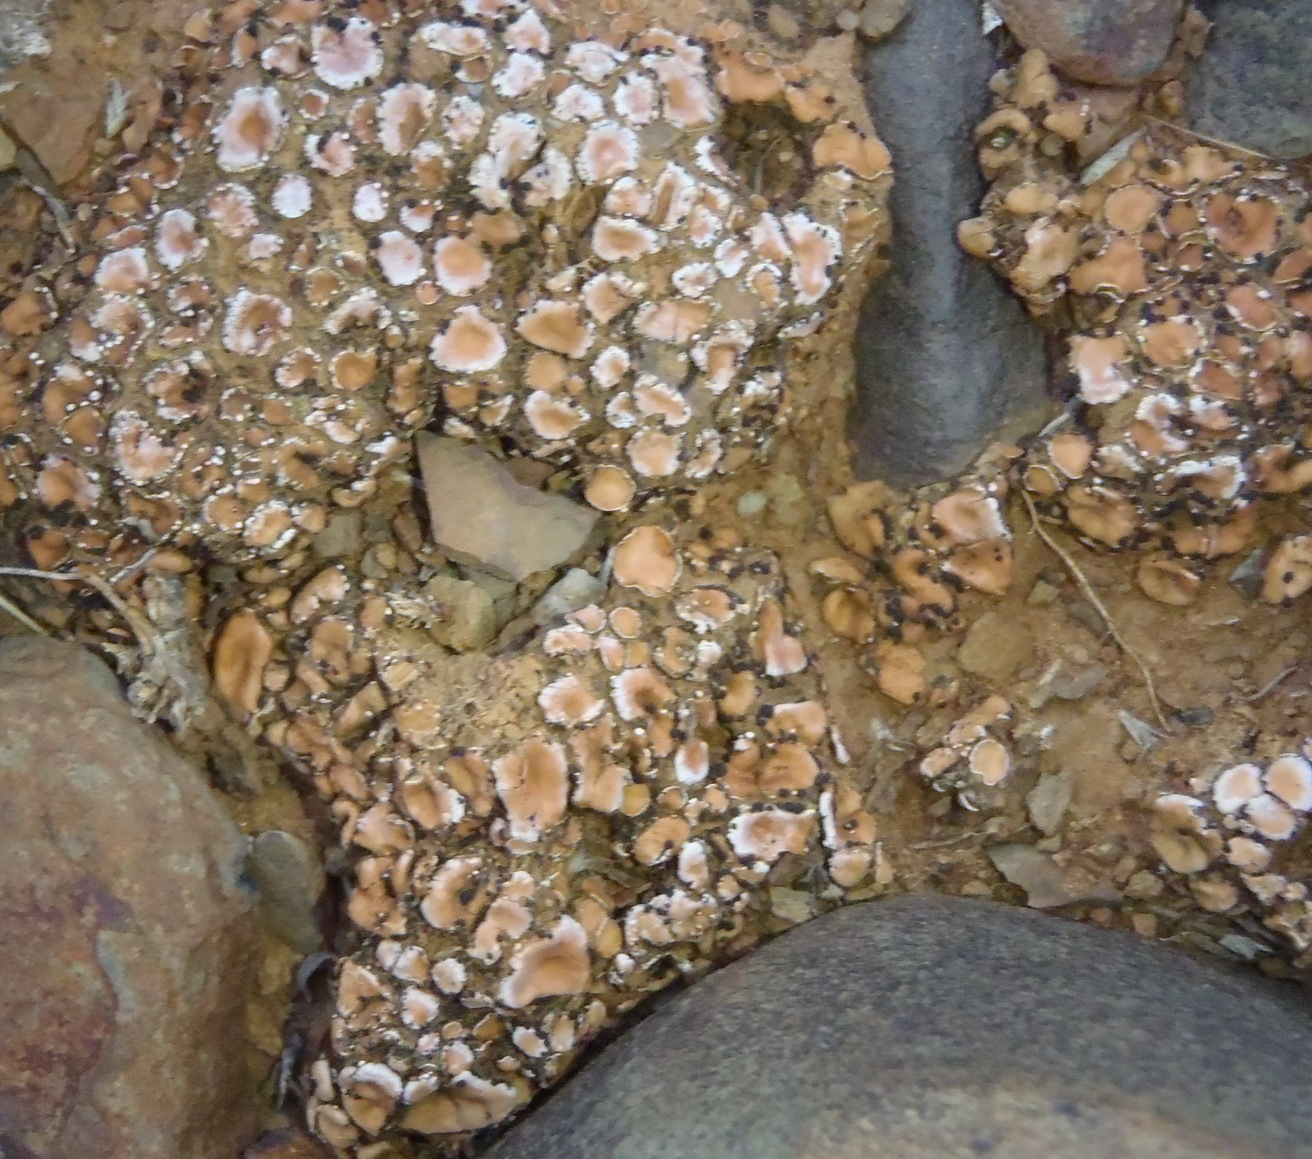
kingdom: Fungi
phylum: Ascomycota
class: Lecanoromycetes
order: Lecanorales
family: Psoraceae
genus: Psora
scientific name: Psora crenata
